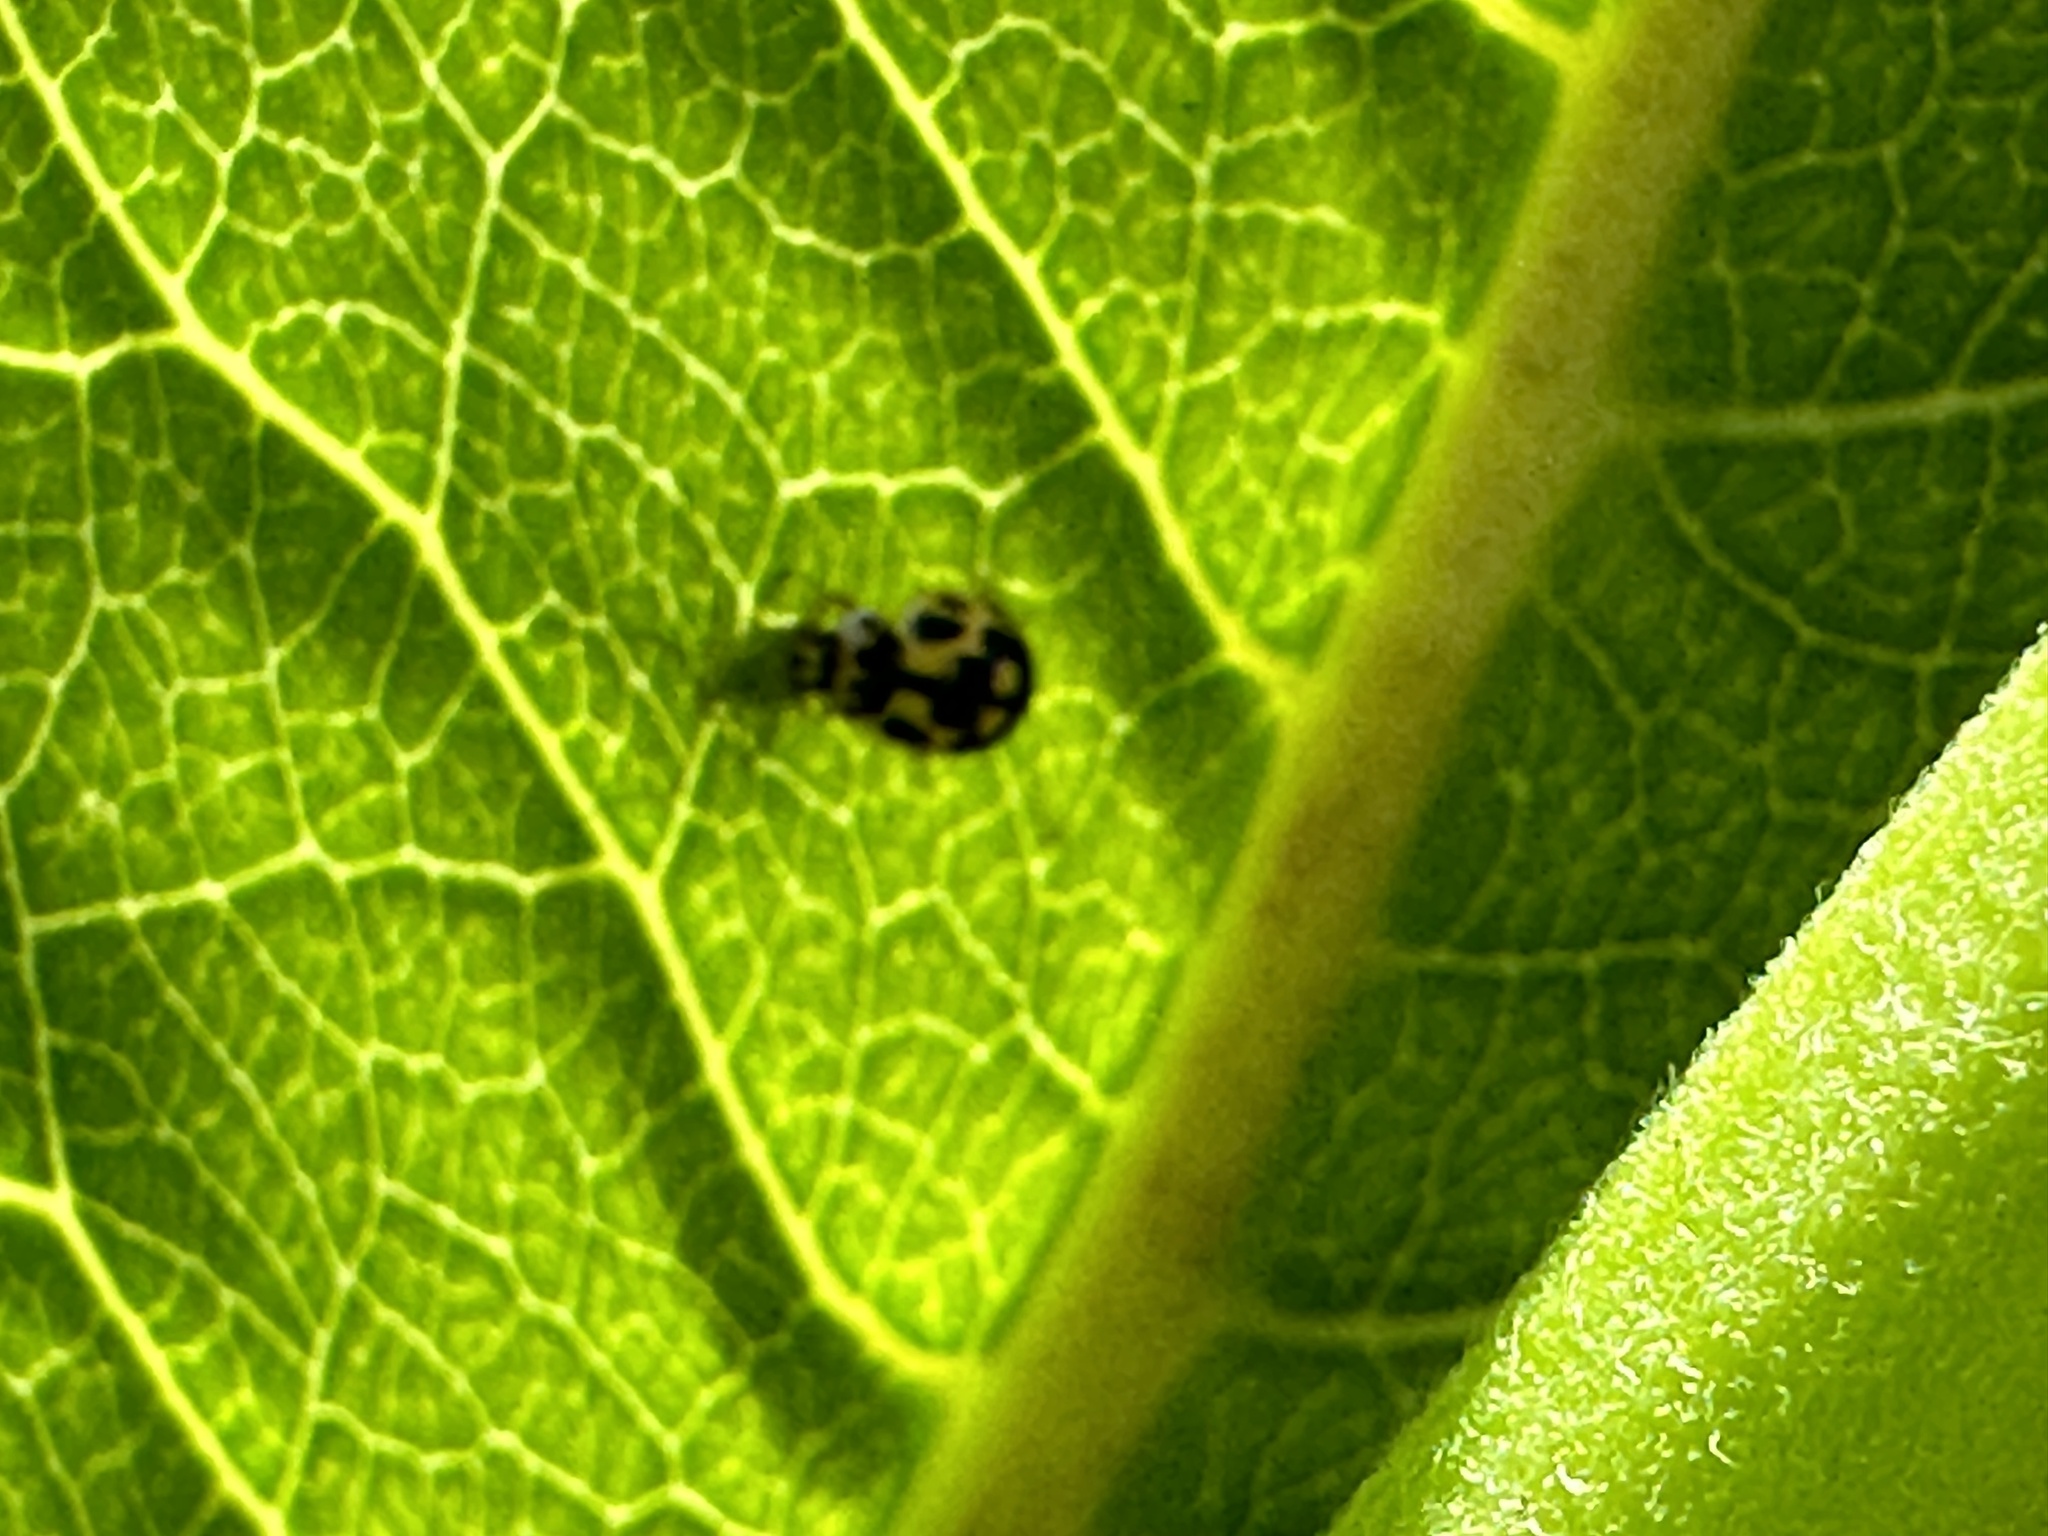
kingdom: Animalia
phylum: Arthropoda
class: Insecta
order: Coleoptera
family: Coccinellidae
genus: Propylaea
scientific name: Propylaea quatuordecimpunctata
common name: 14-spotted ladybird beetle
